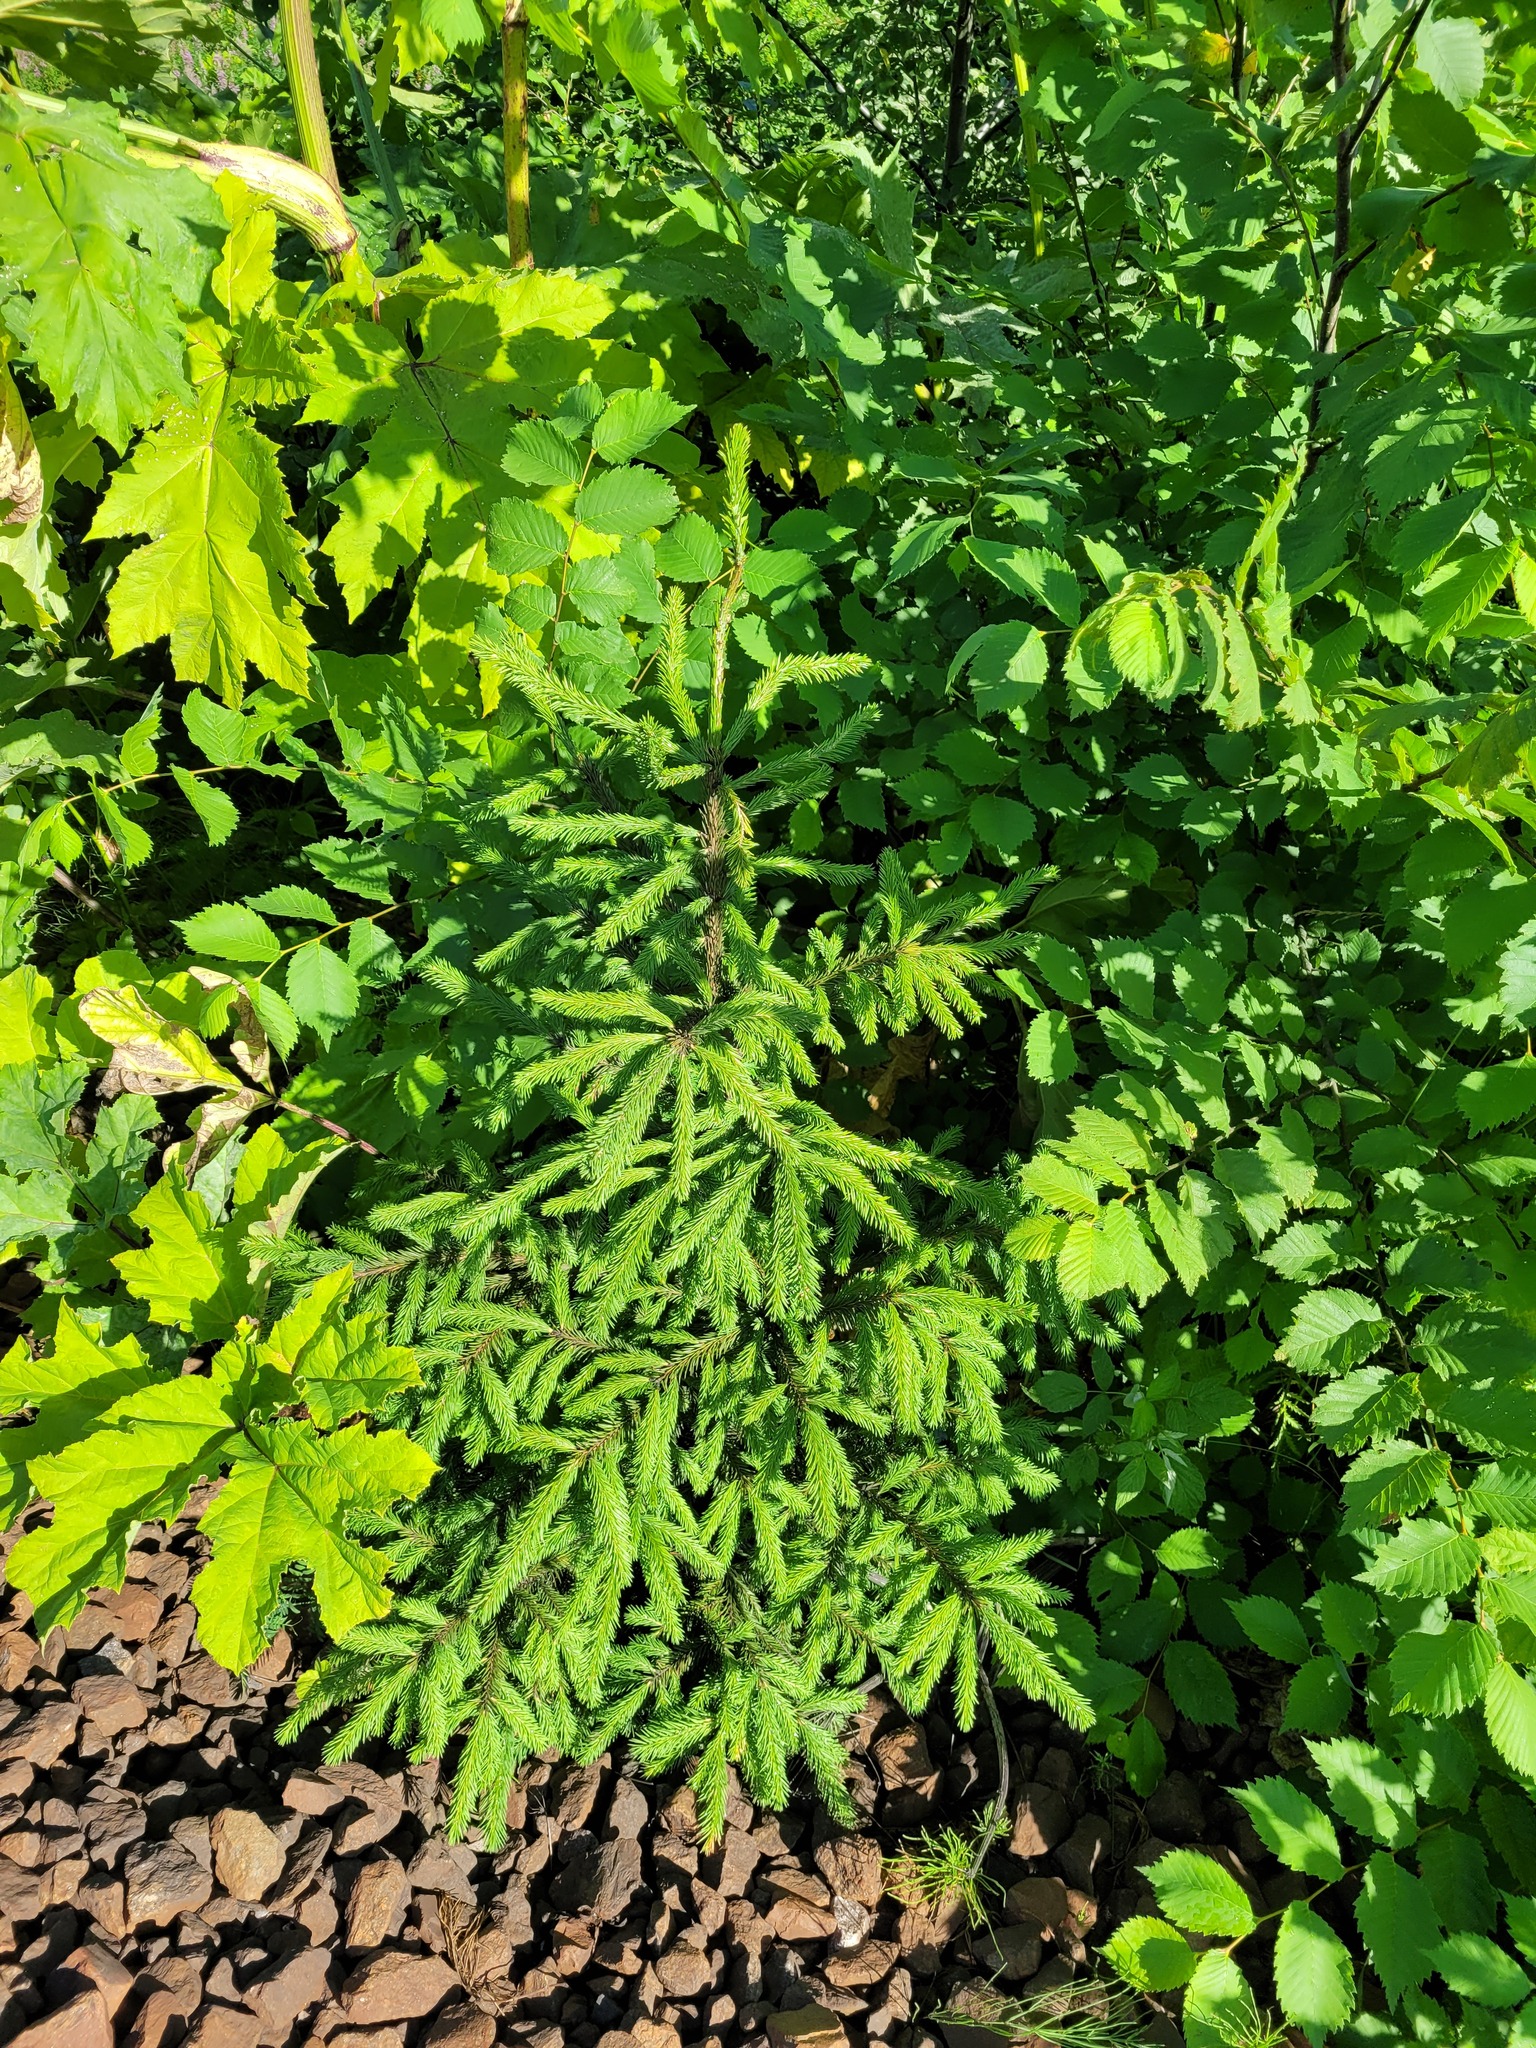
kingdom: Plantae
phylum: Tracheophyta
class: Pinopsida
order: Pinales
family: Pinaceae
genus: Picea
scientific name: Picea abies
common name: Norway spruce
